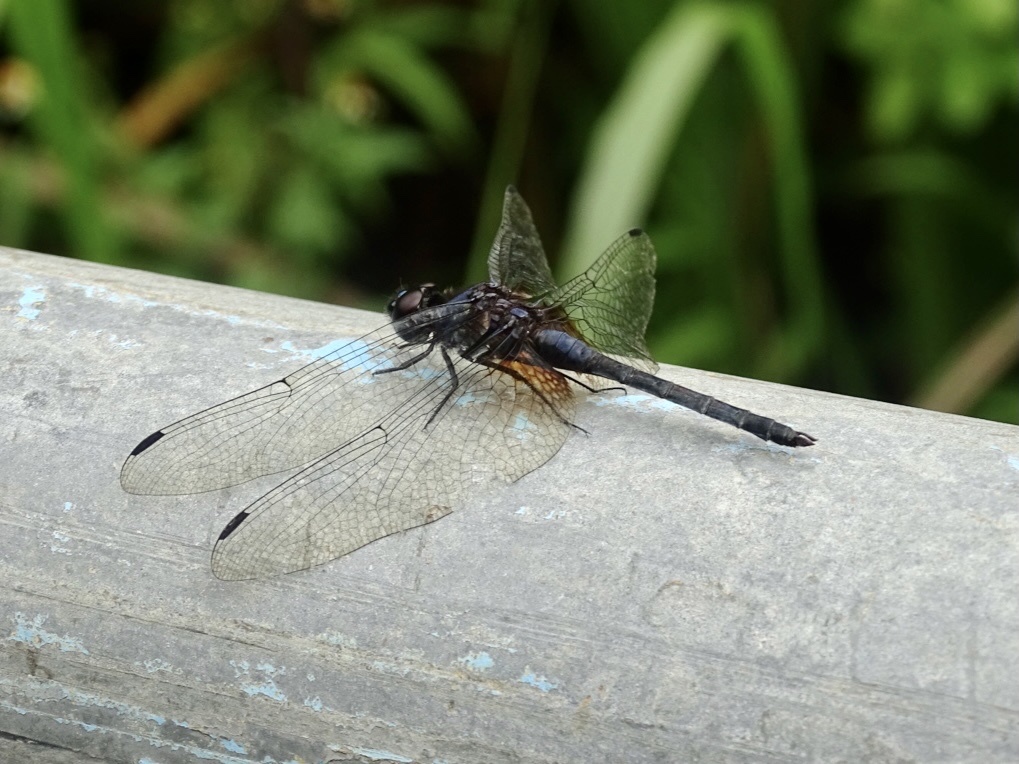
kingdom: Animalia
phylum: Arthropoda
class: Insecta
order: Odonata
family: Libellulidae
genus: Trithemis
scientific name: Trithemis festiva
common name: Indigo dropwing
